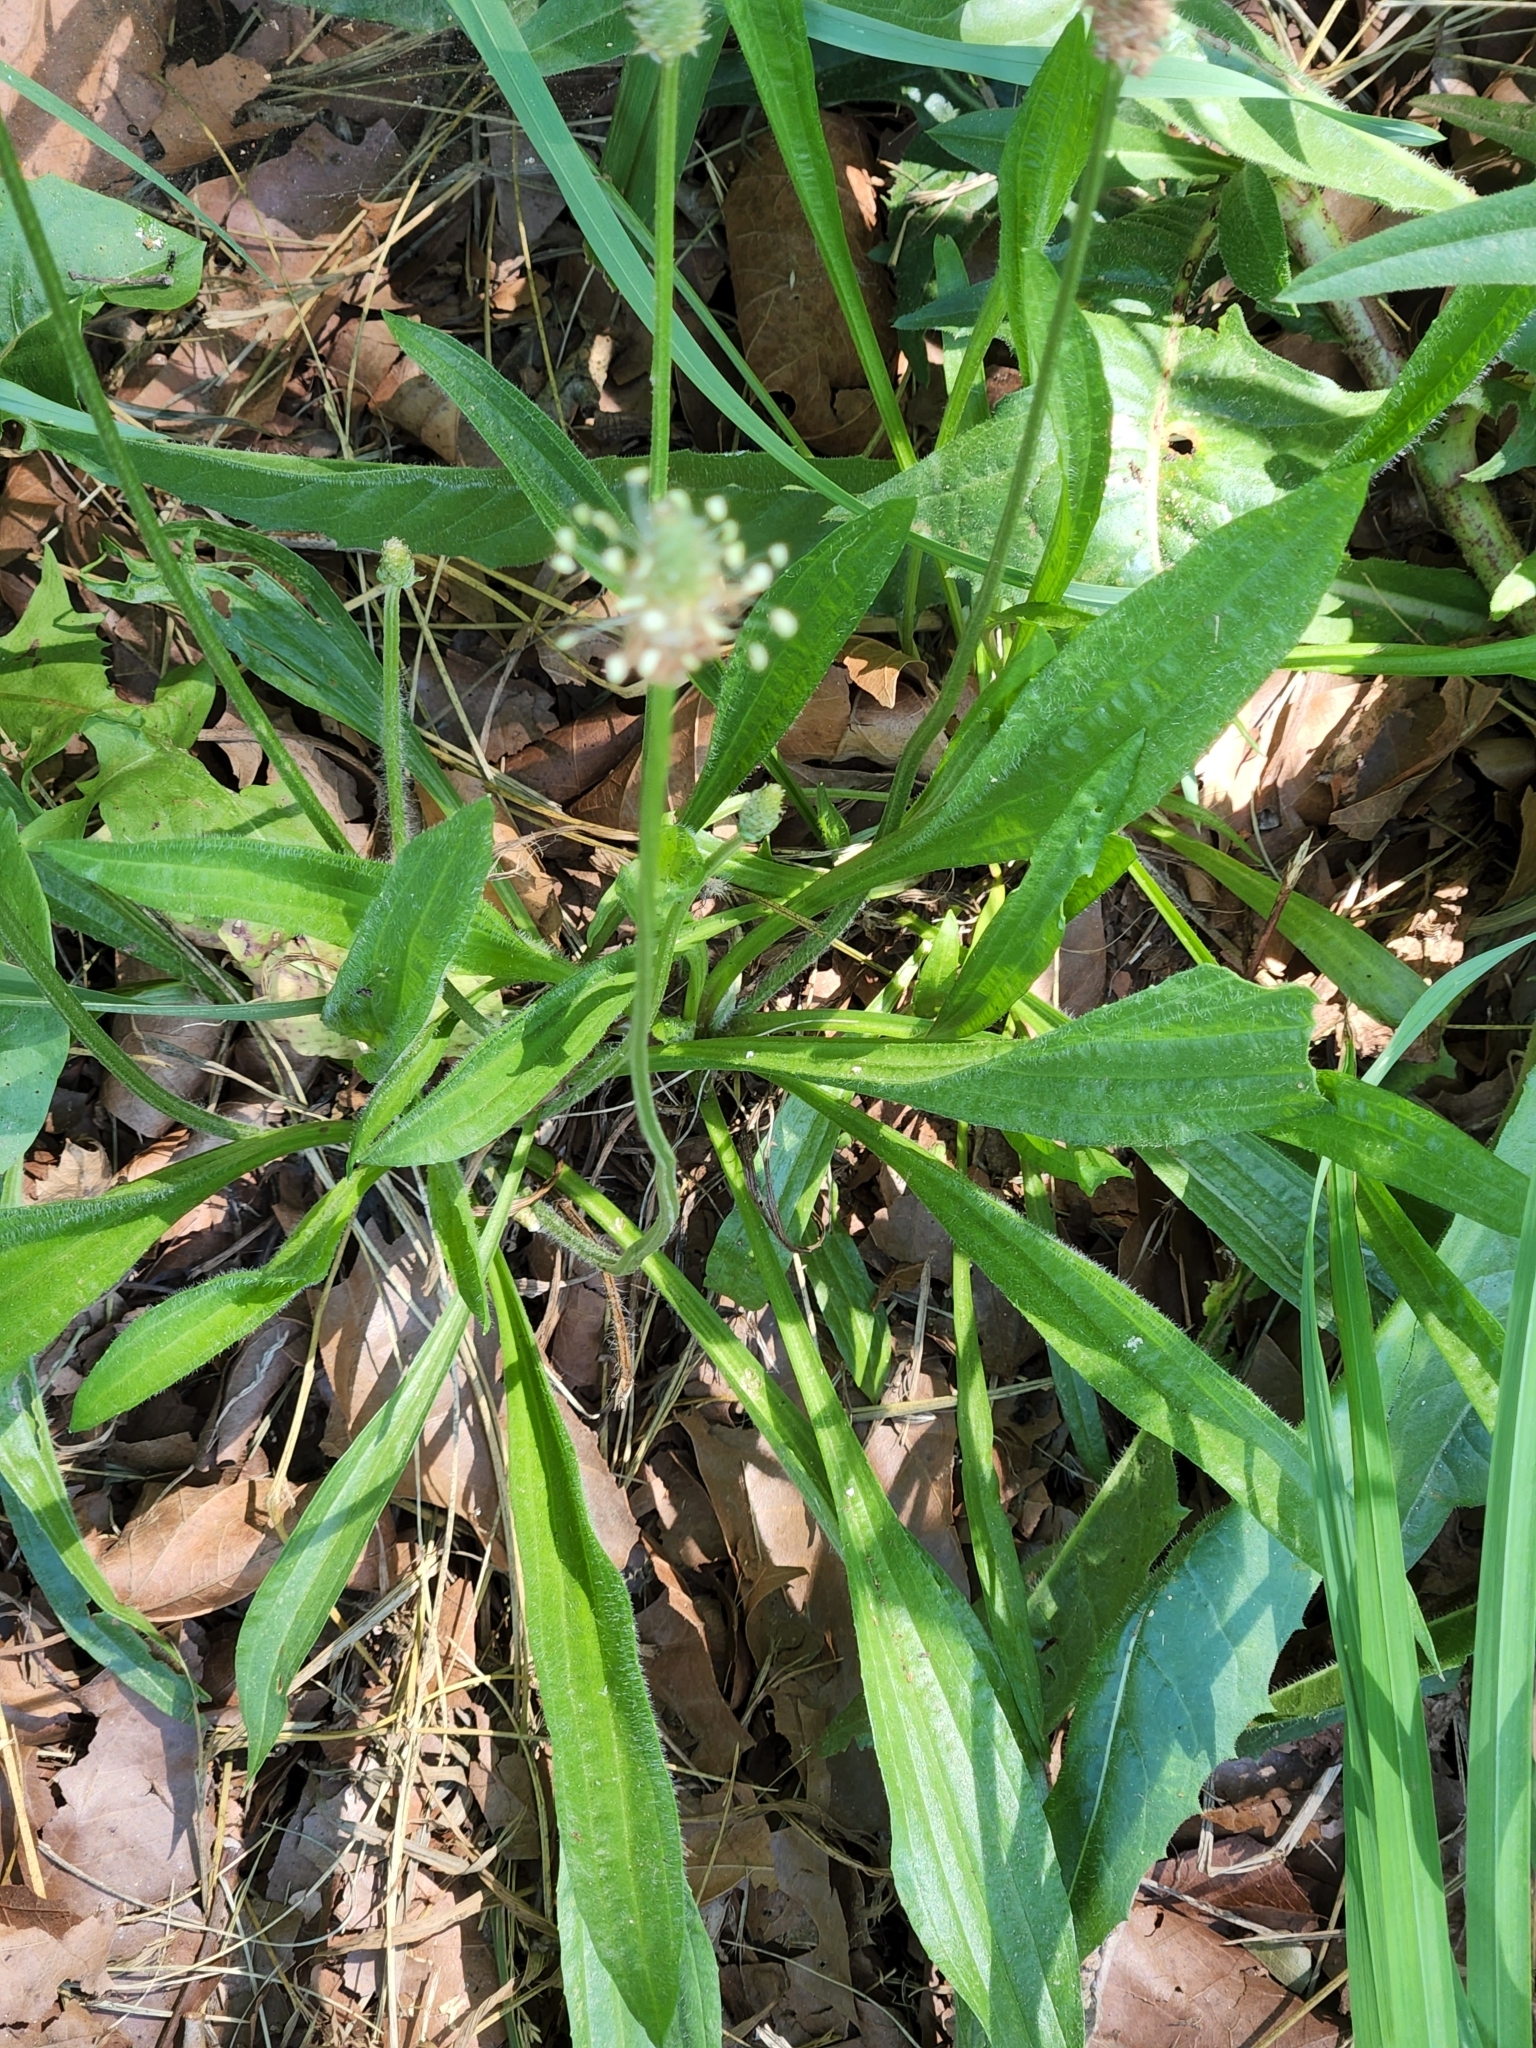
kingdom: Plantae
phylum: Tracheophyta
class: Magnoliopsida
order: Lamiales
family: Plantaginaceae
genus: Plantago
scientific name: Plantago lanceolata
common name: Ribwort plantain
